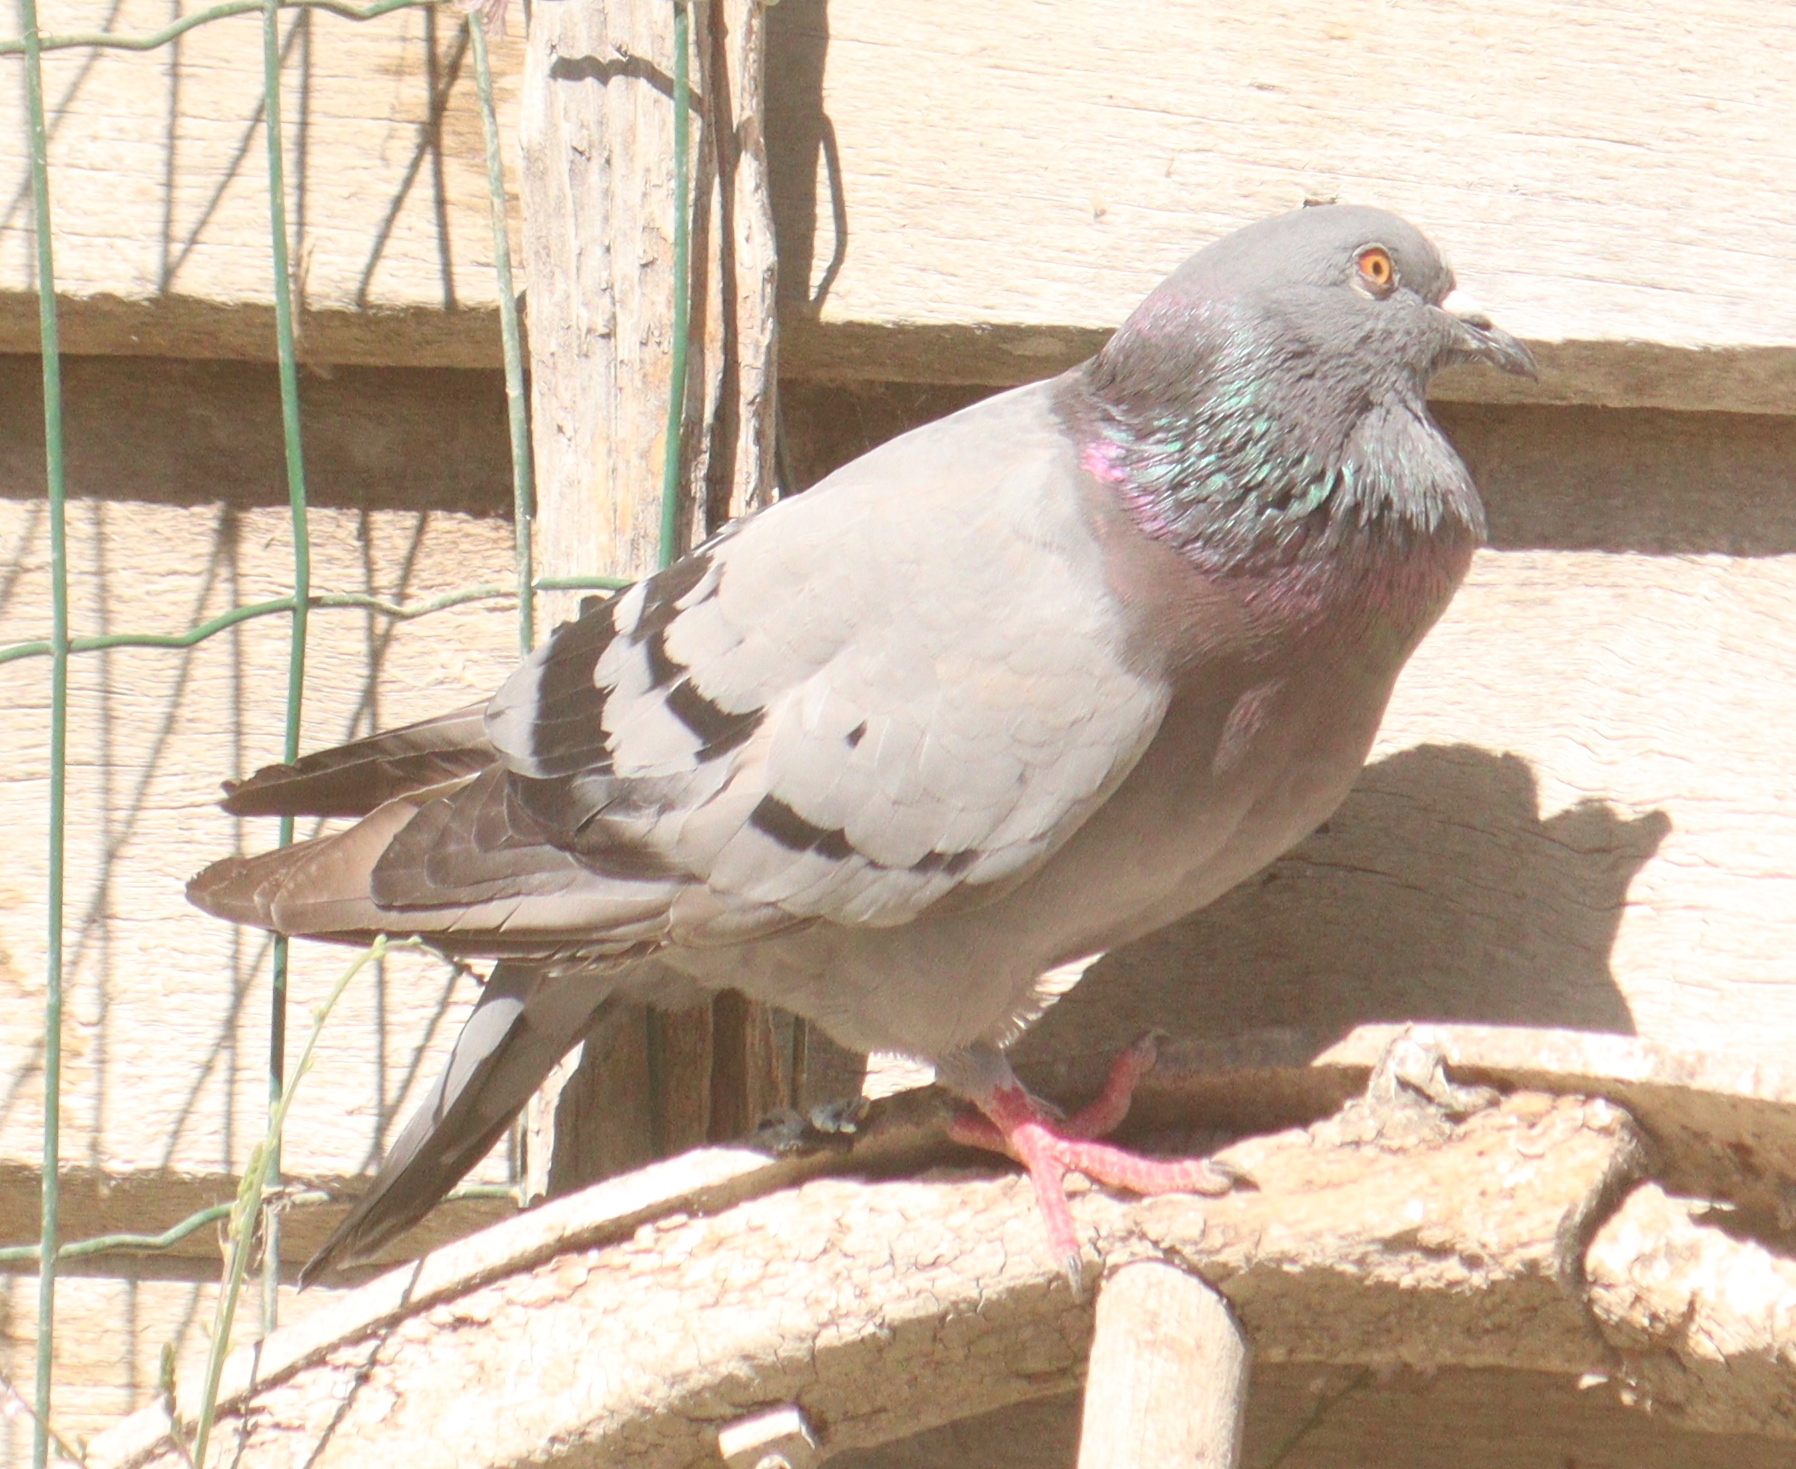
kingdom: Animalia
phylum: Chordata
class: Aves
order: Columbiformes
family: Columbidae
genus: Columba
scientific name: Columba livia
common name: Rock pigeon
